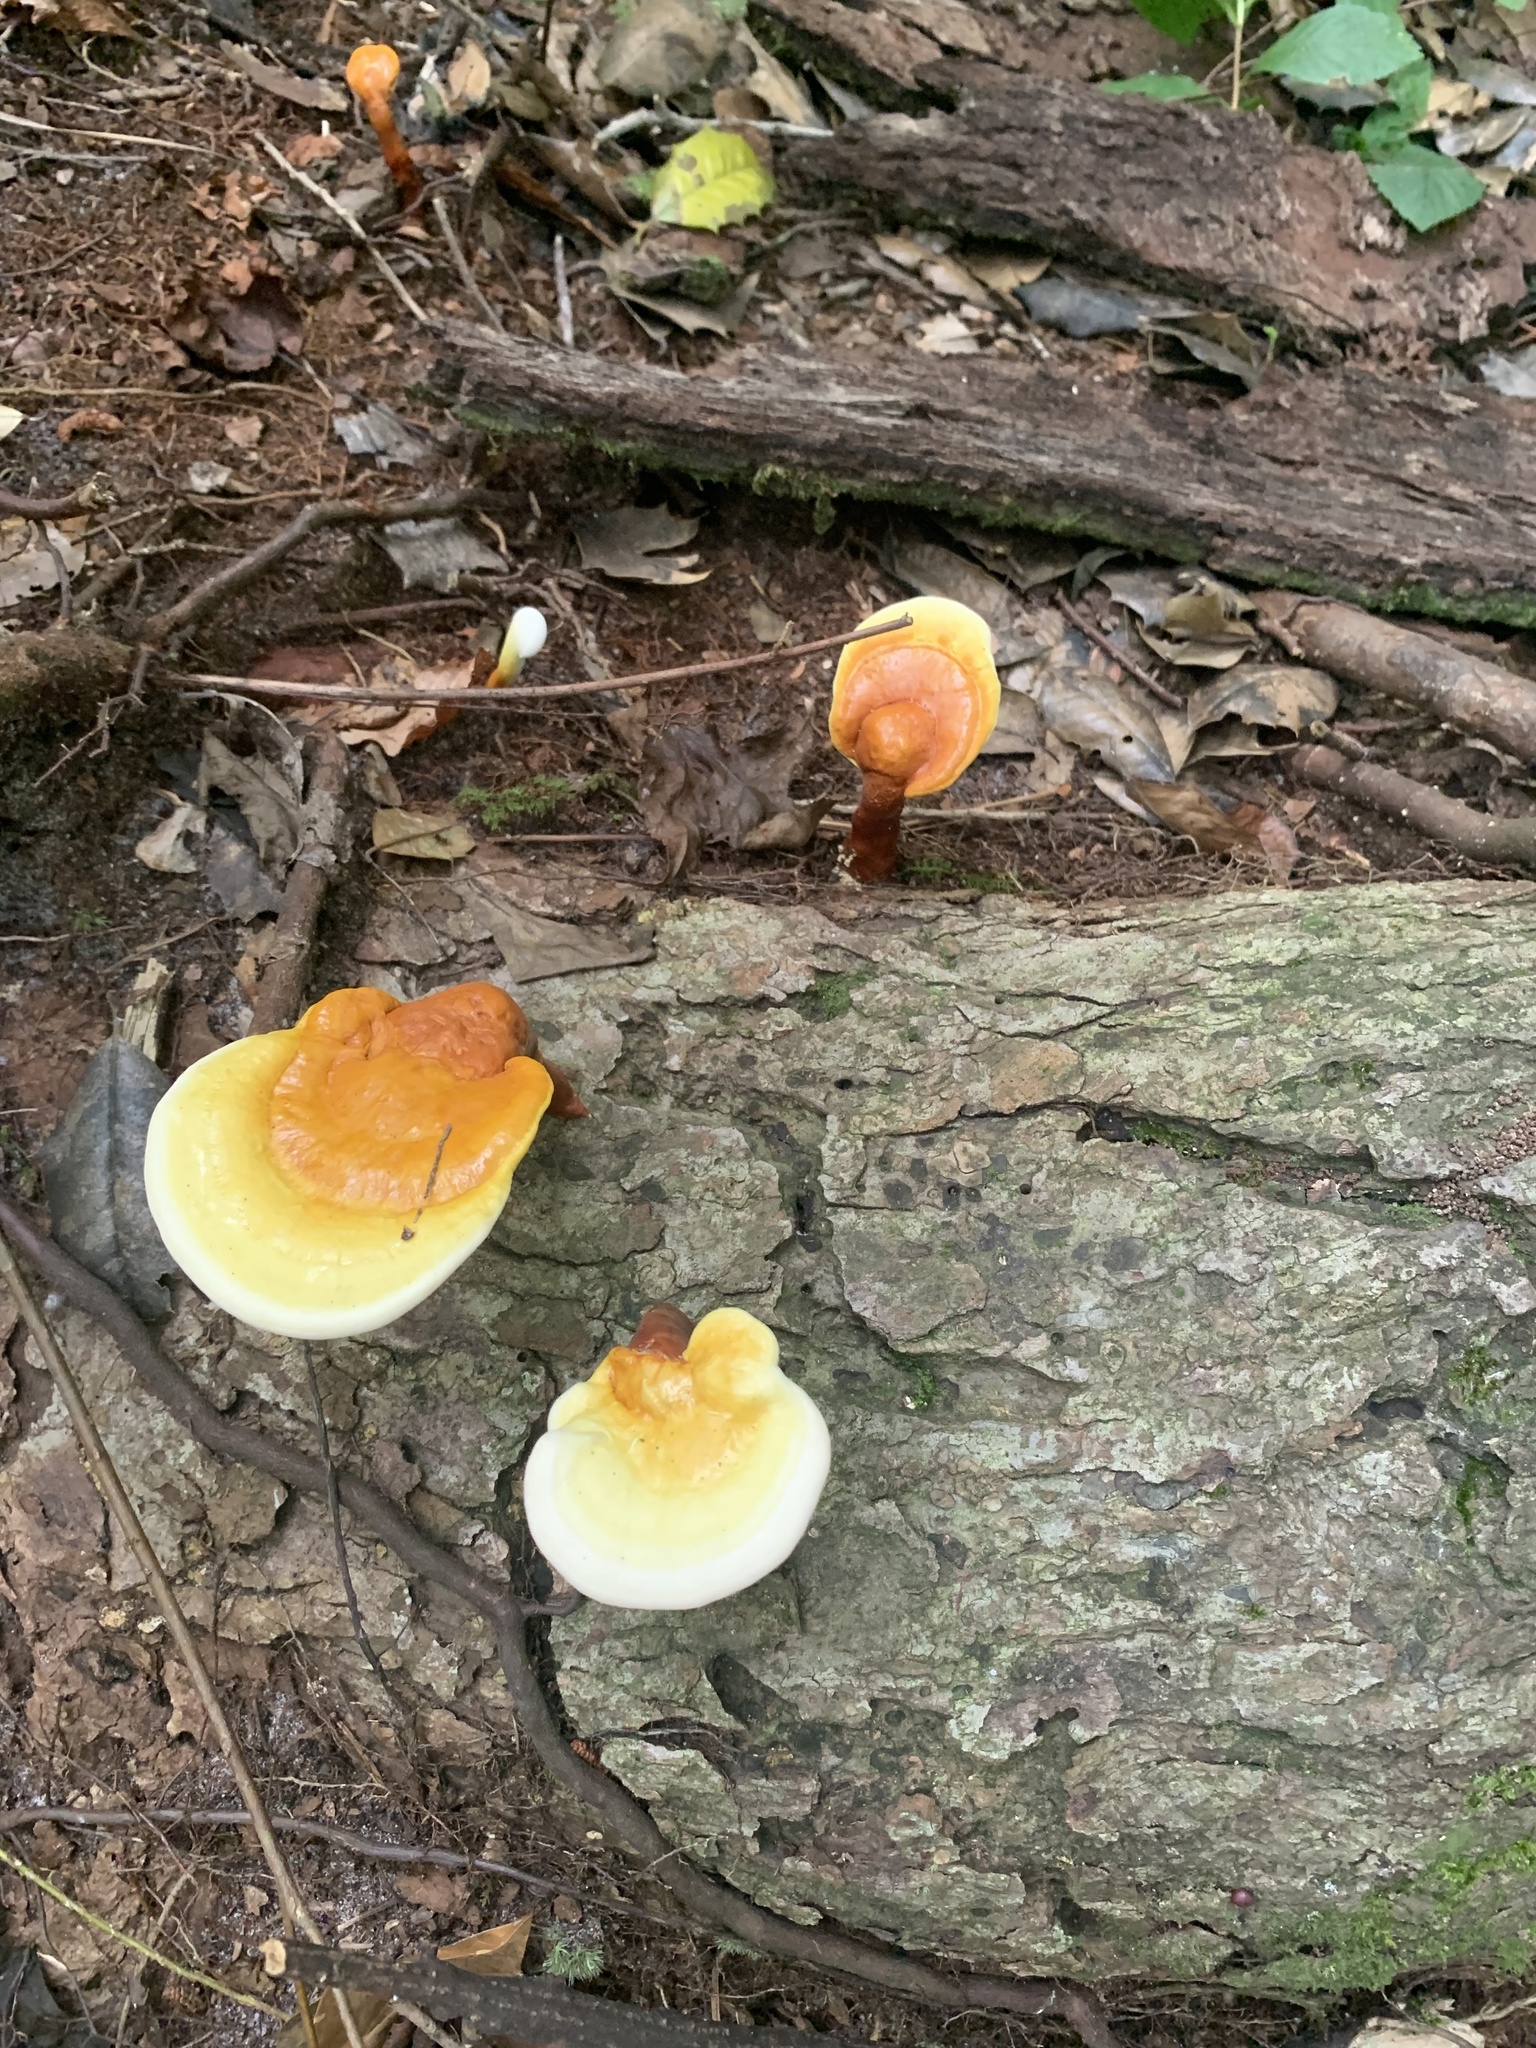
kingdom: Fungi
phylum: Basidiomycota
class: Agaricomycetes
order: Polyporales
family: Polyporaceae
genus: Ganoderma
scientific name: Ganoderma curtisii
